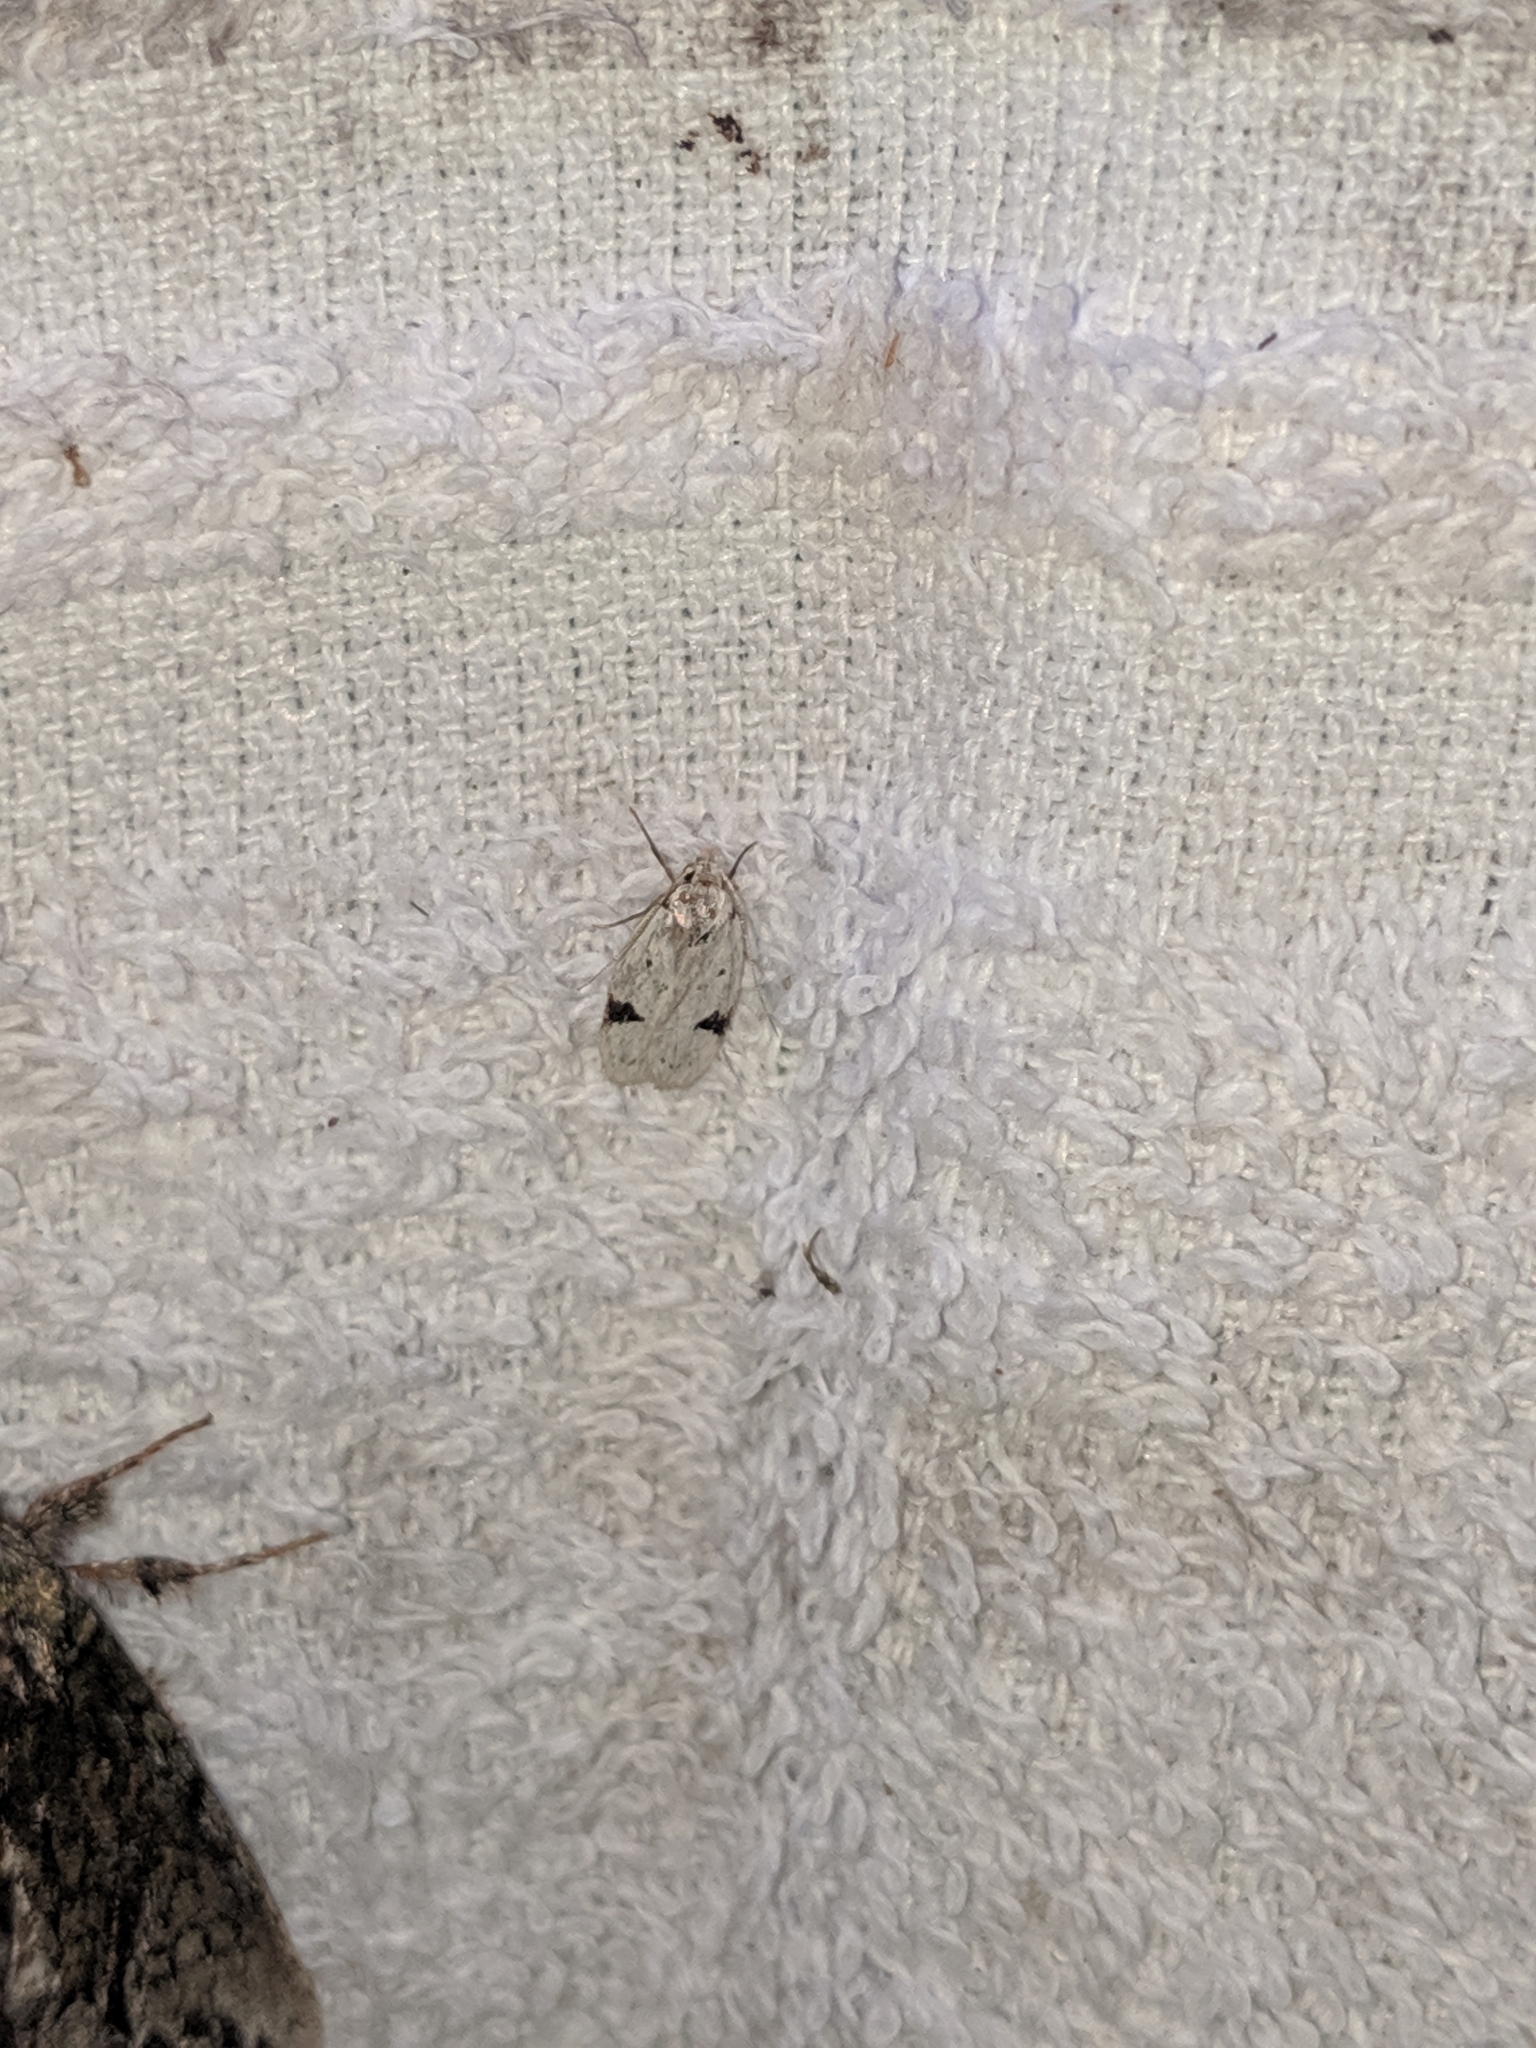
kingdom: Animalia
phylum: Arthropoda
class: Insecta
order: Lepidoptera
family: Oecophoridae
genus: Inga
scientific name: Inga sparsiciliella
